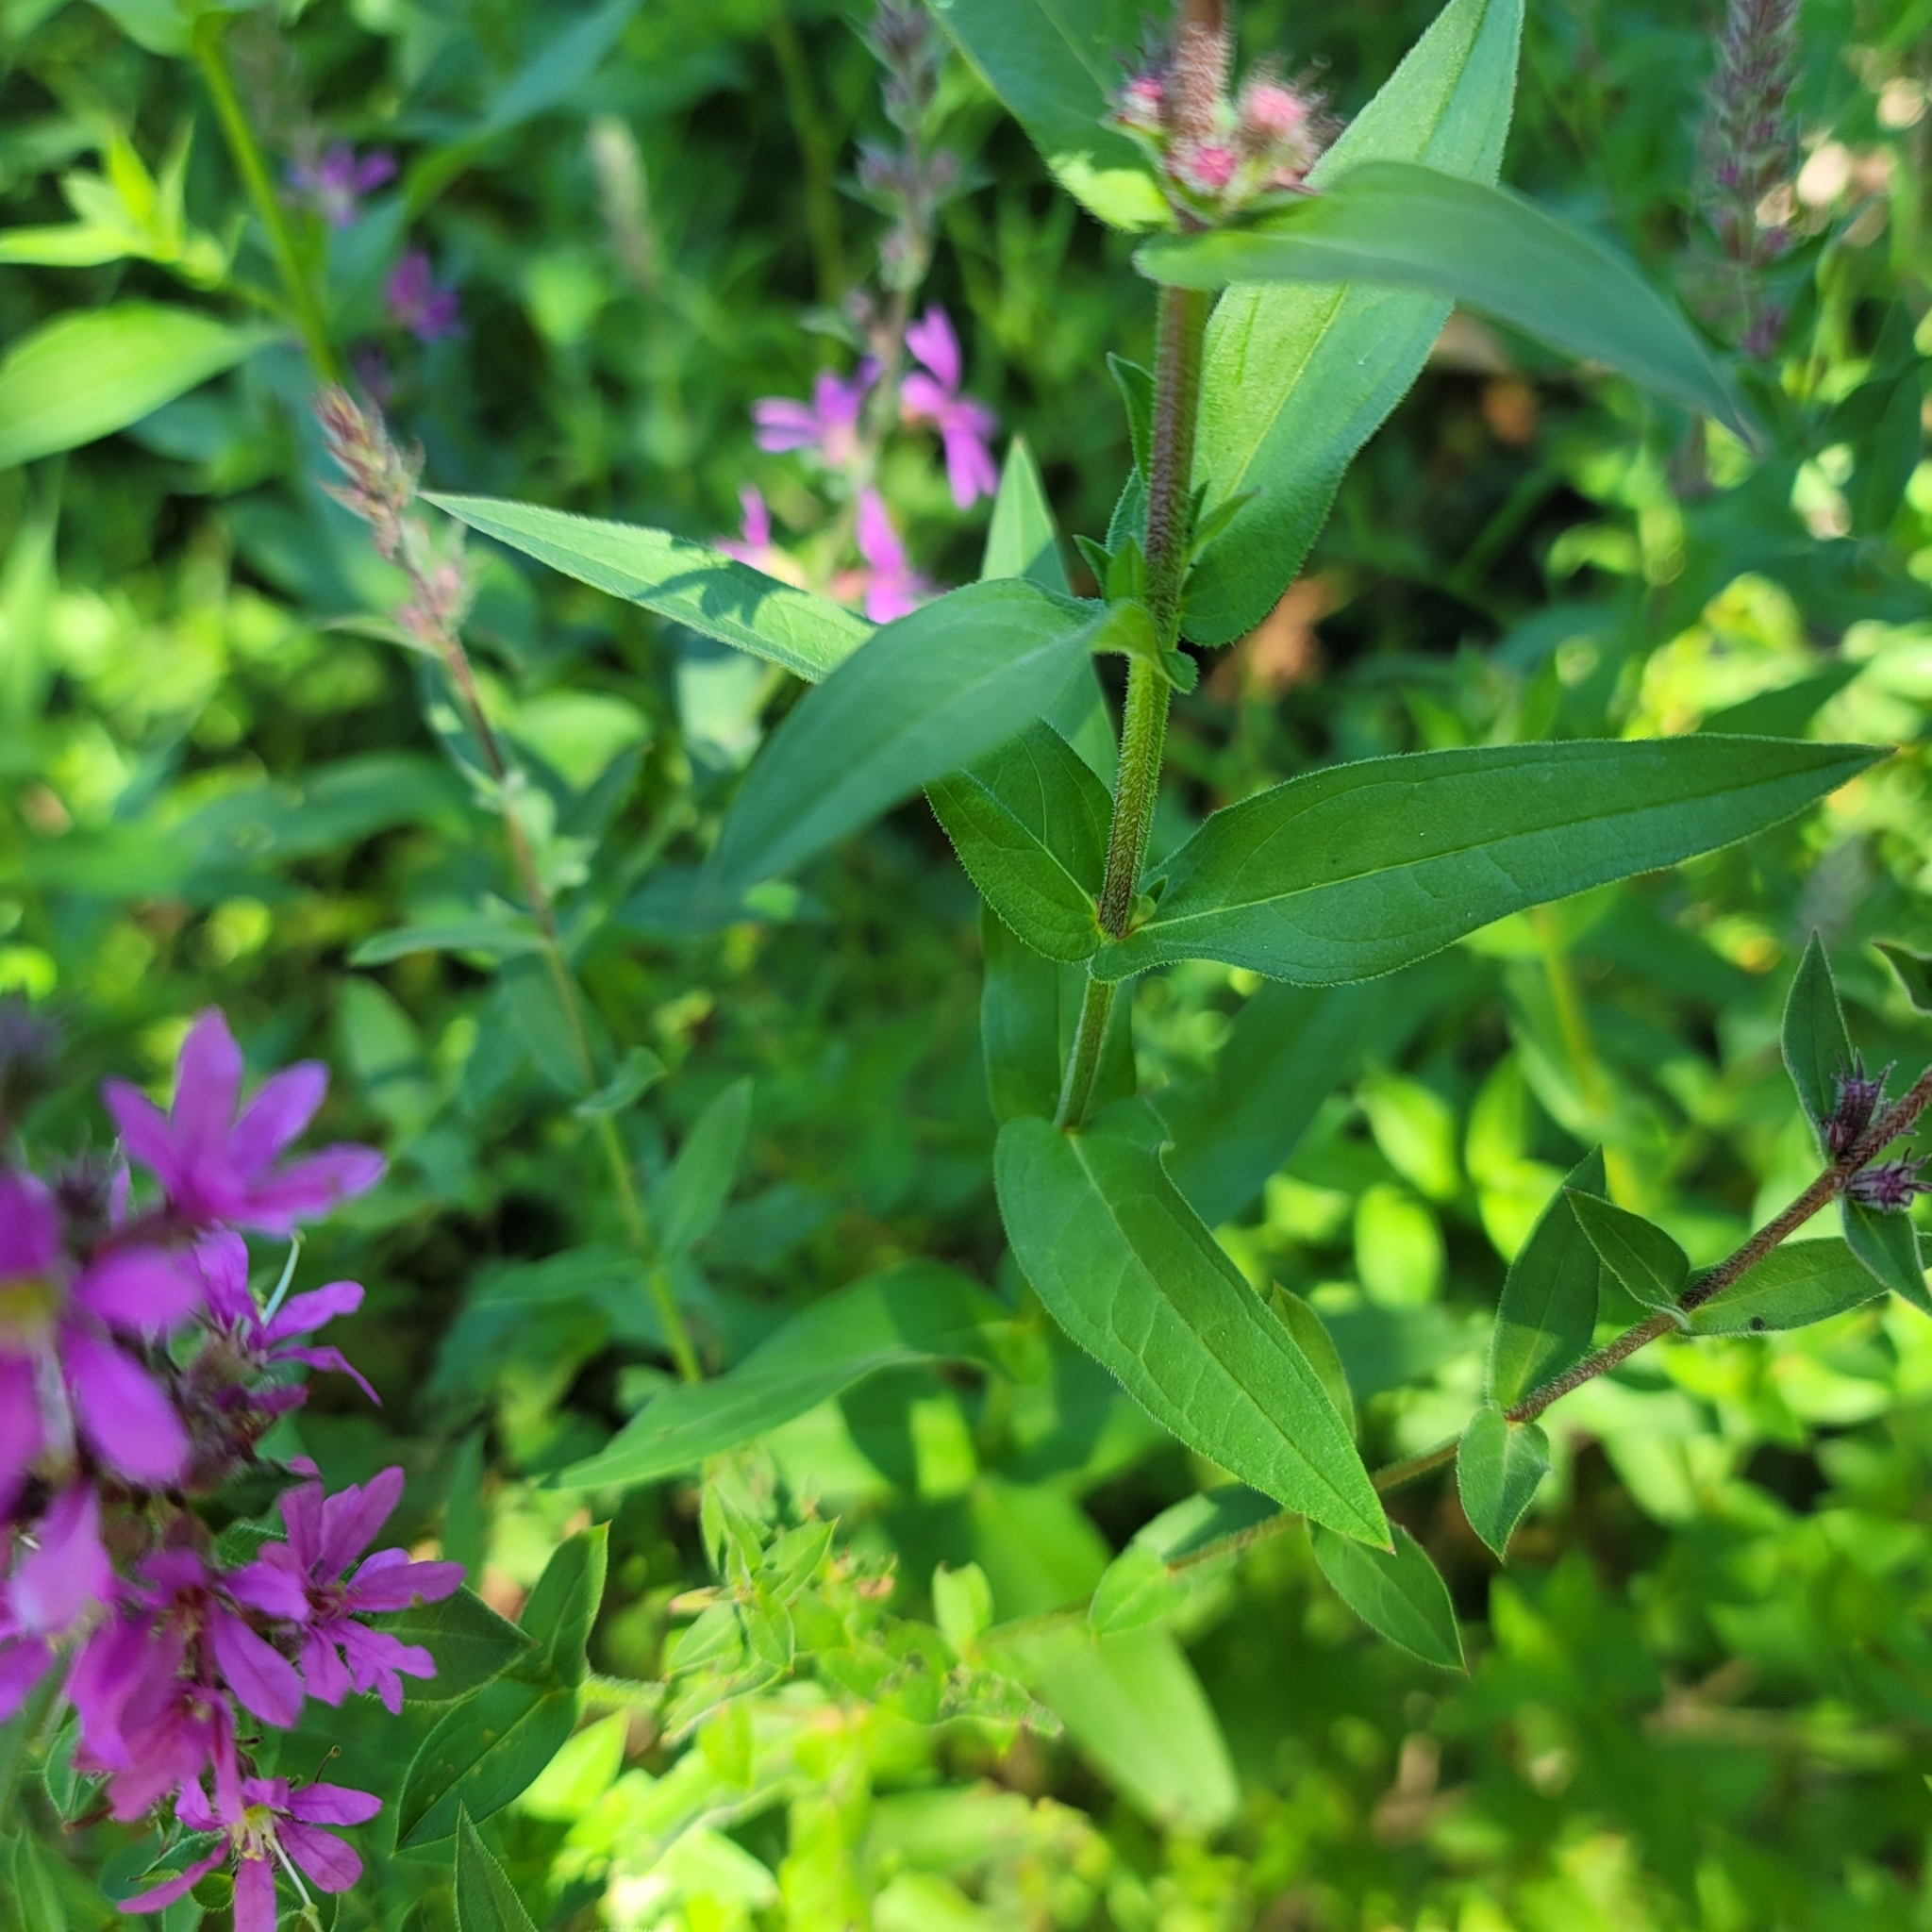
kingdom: Plantae
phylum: Tracheophyta
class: Magnoliopsida
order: Myrtales
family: Lythraceae
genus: Lythrum
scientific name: Lythrum salicaria
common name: Purple loosestrife
